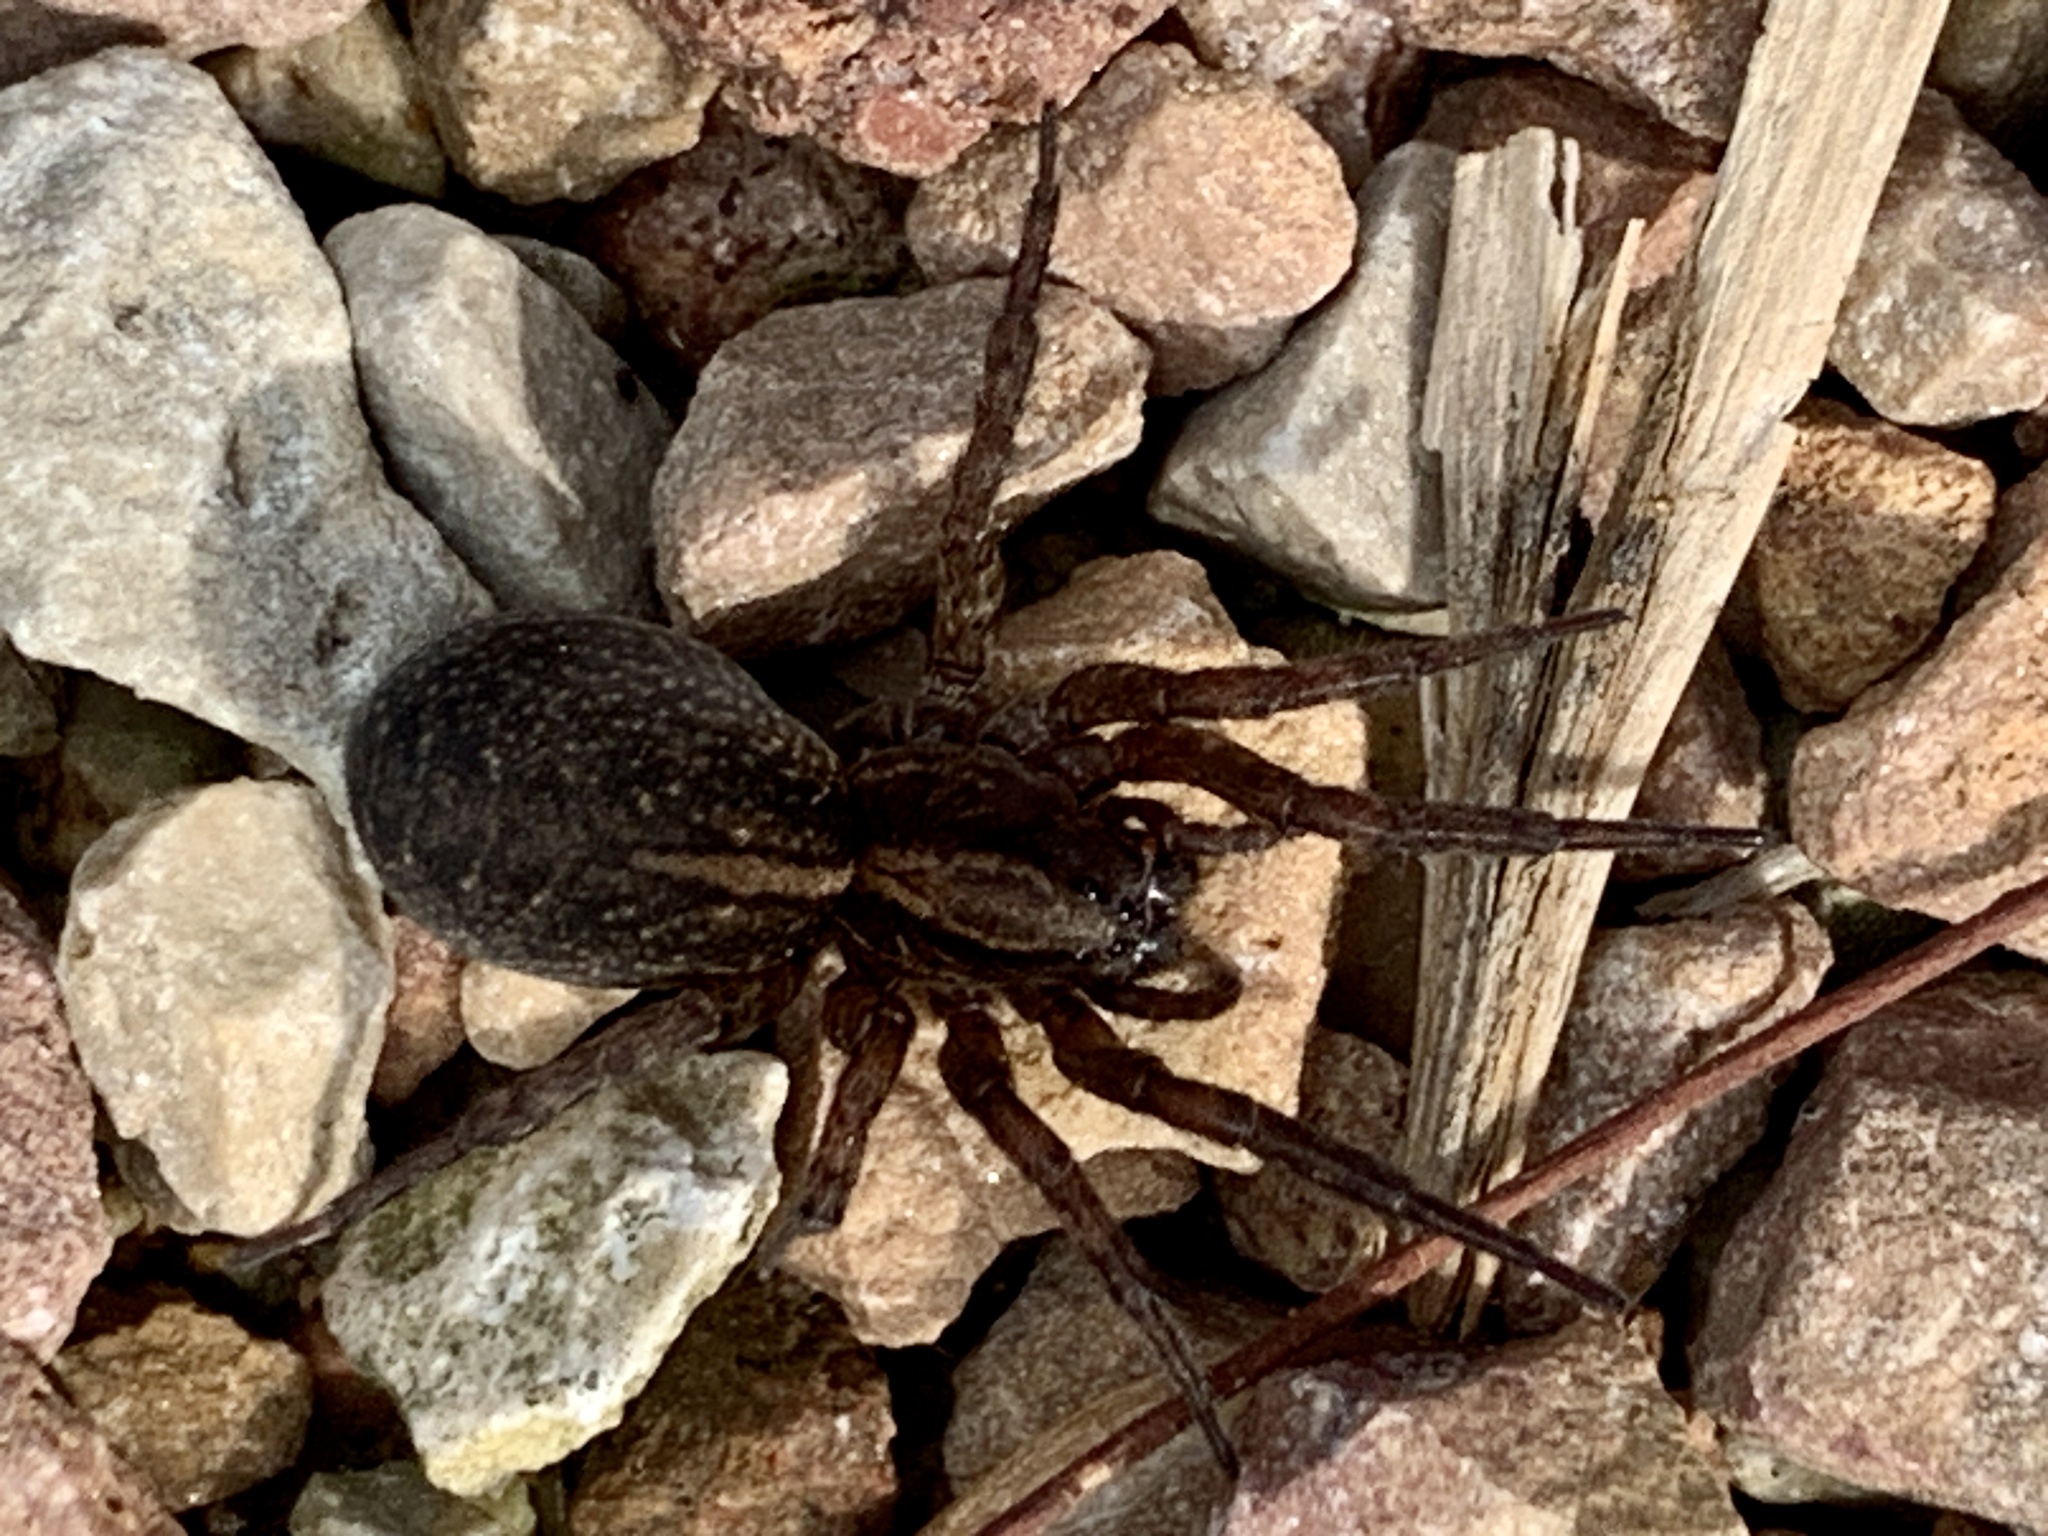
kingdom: Animalia
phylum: Arthropoda
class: Arachnida
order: Araneae
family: Lycosidae
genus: Trochosa
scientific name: Trochosa terricola
